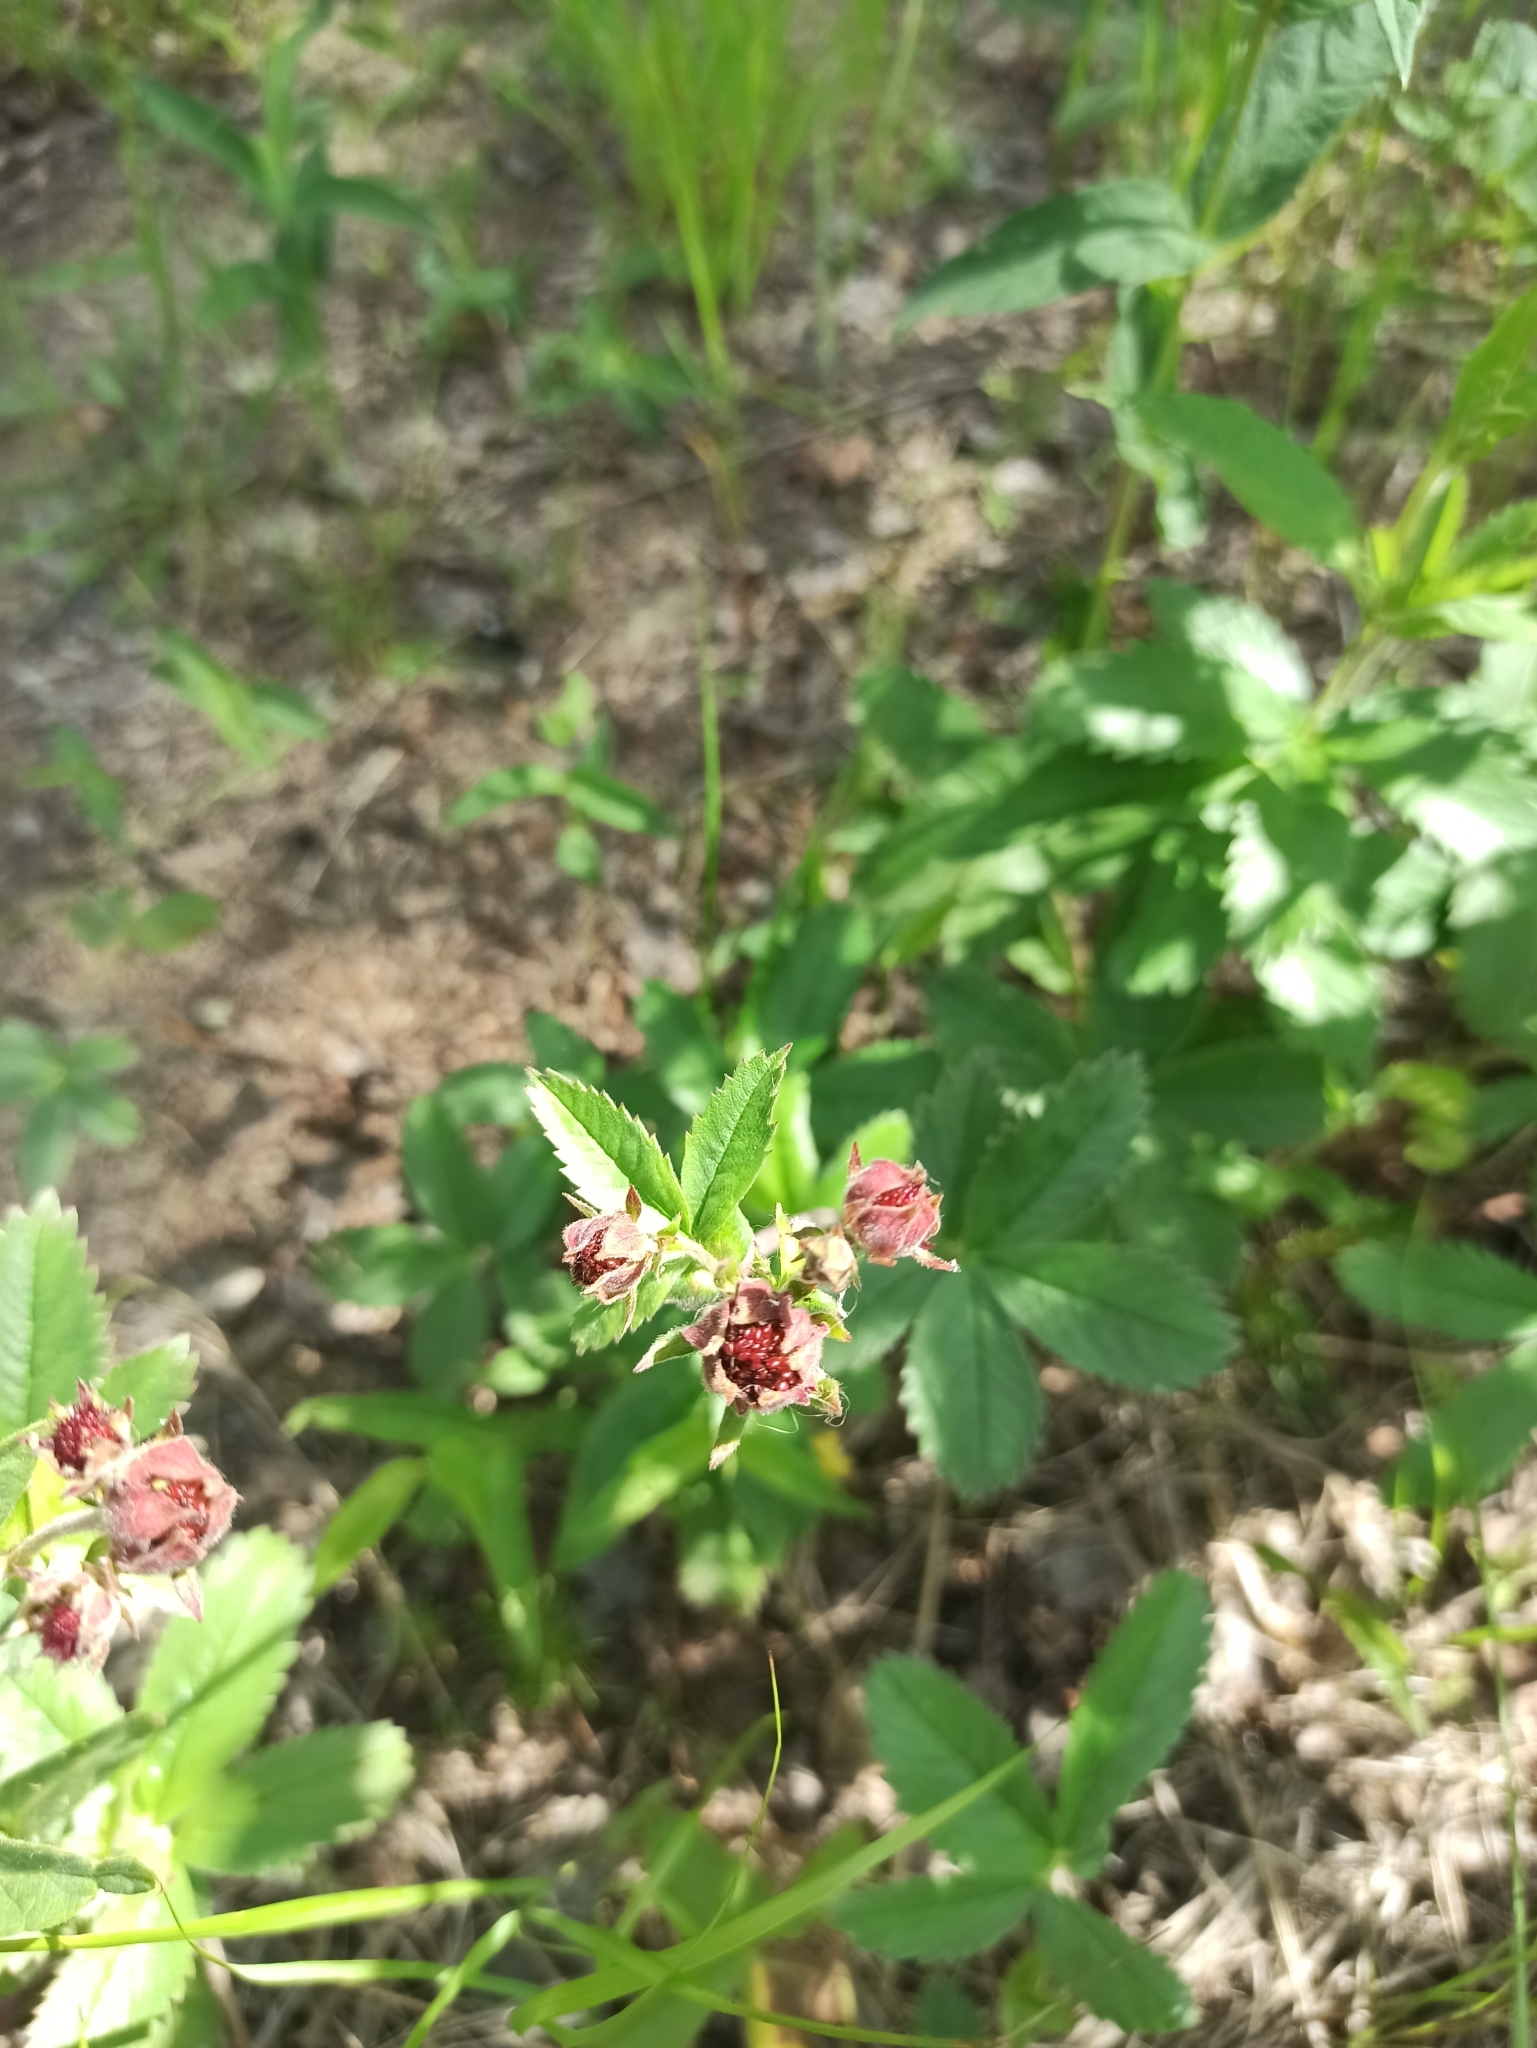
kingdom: Plantae
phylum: Tracheophyta
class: Magnoliopsida
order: Rosales
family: Rosaceae
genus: Comarum
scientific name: Comarum palustre
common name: Marsh cinquefoil
